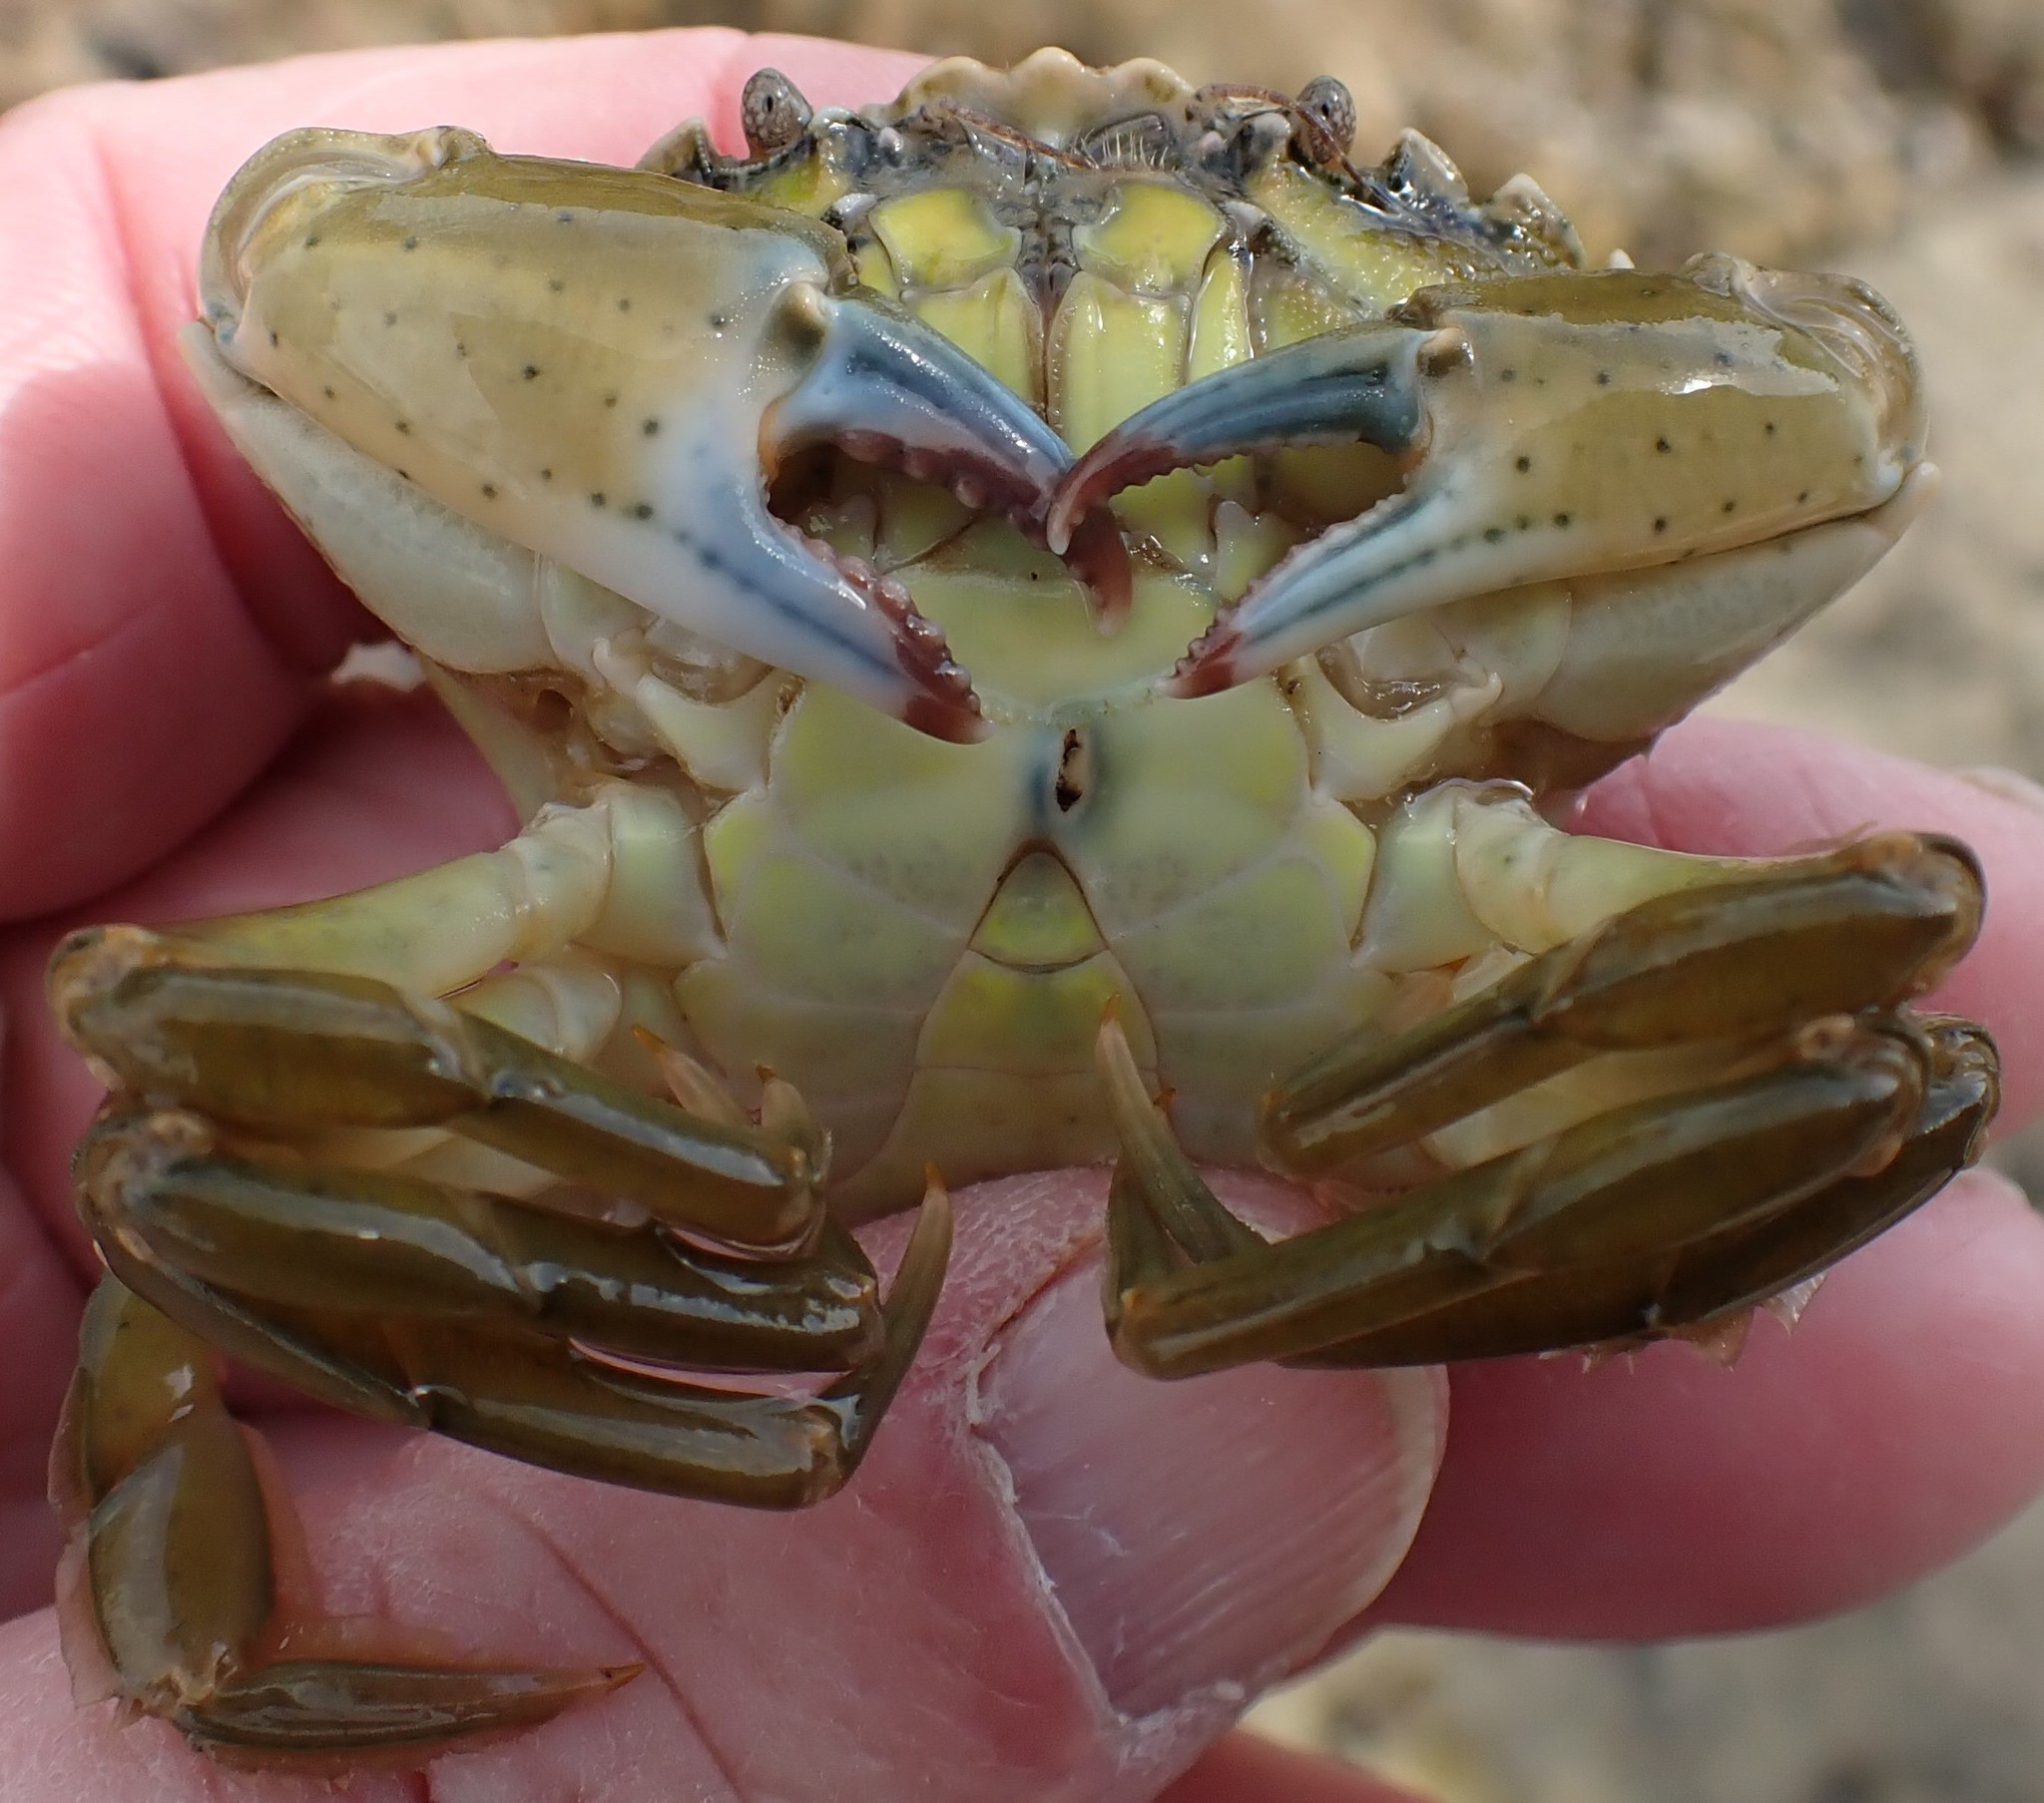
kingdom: Animalia
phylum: Arthropoda
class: Malacostraca
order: Decapoda
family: Carcinidae
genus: Carcinus
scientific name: Carcinus maenas
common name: European green crab
